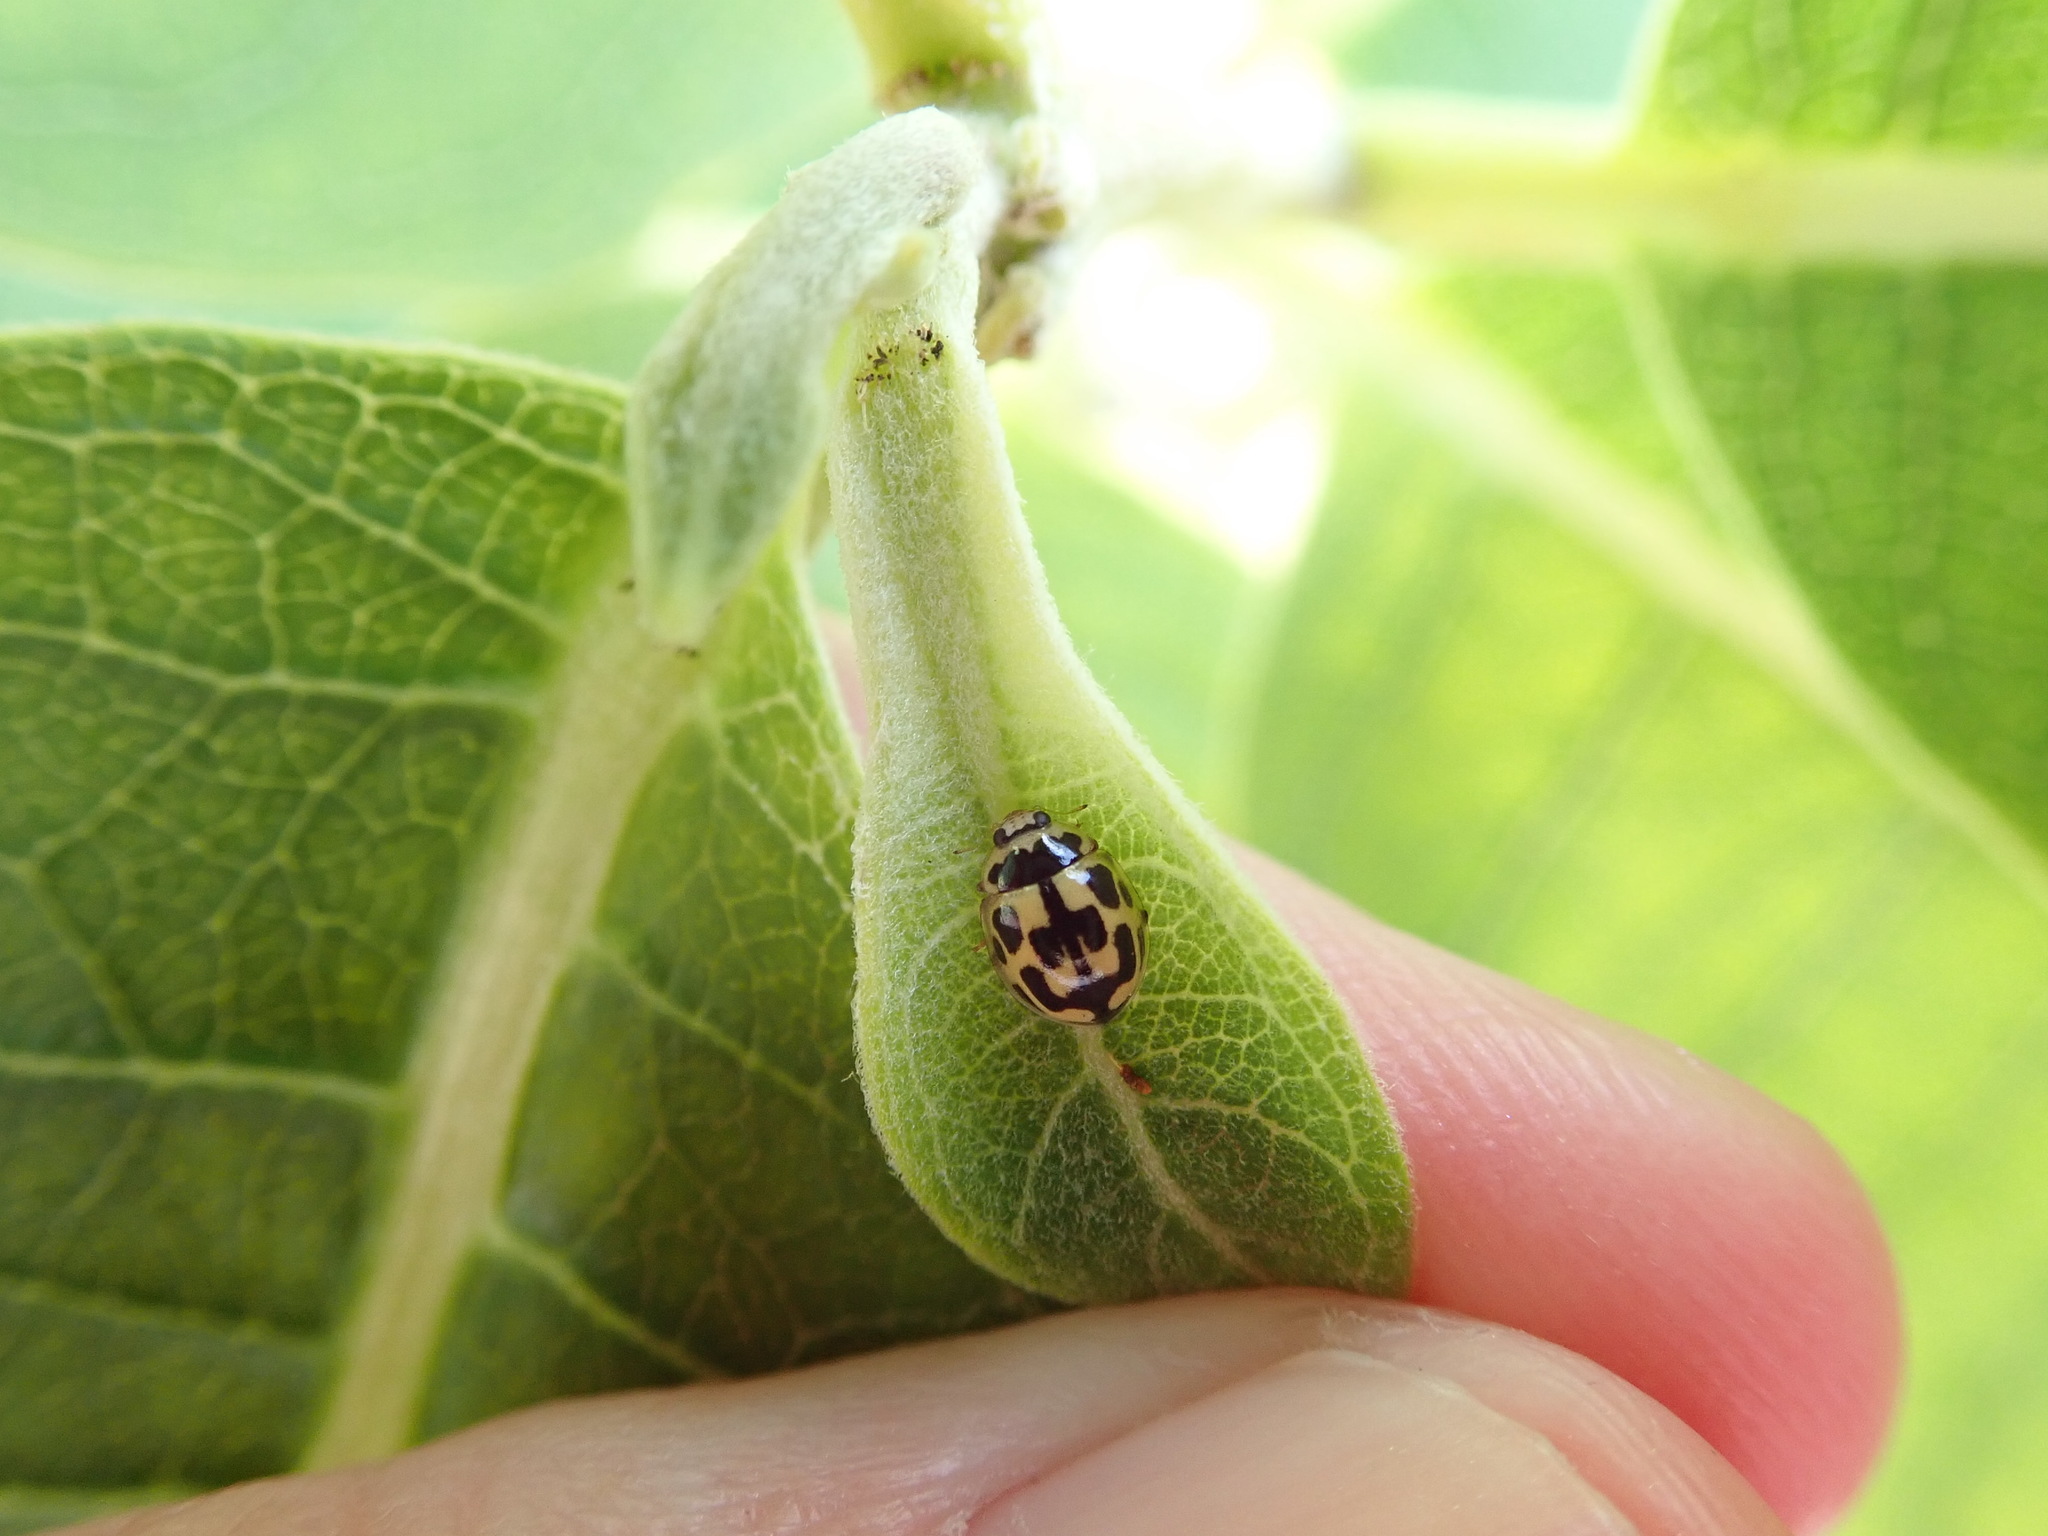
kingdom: Animalia
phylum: Arthropoda
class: Insecta
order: Coleoptera
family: Coccinellidae
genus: Propylaea
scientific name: Propylaea quatuordecimpunctata
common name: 14-spotted ladybird beetle
